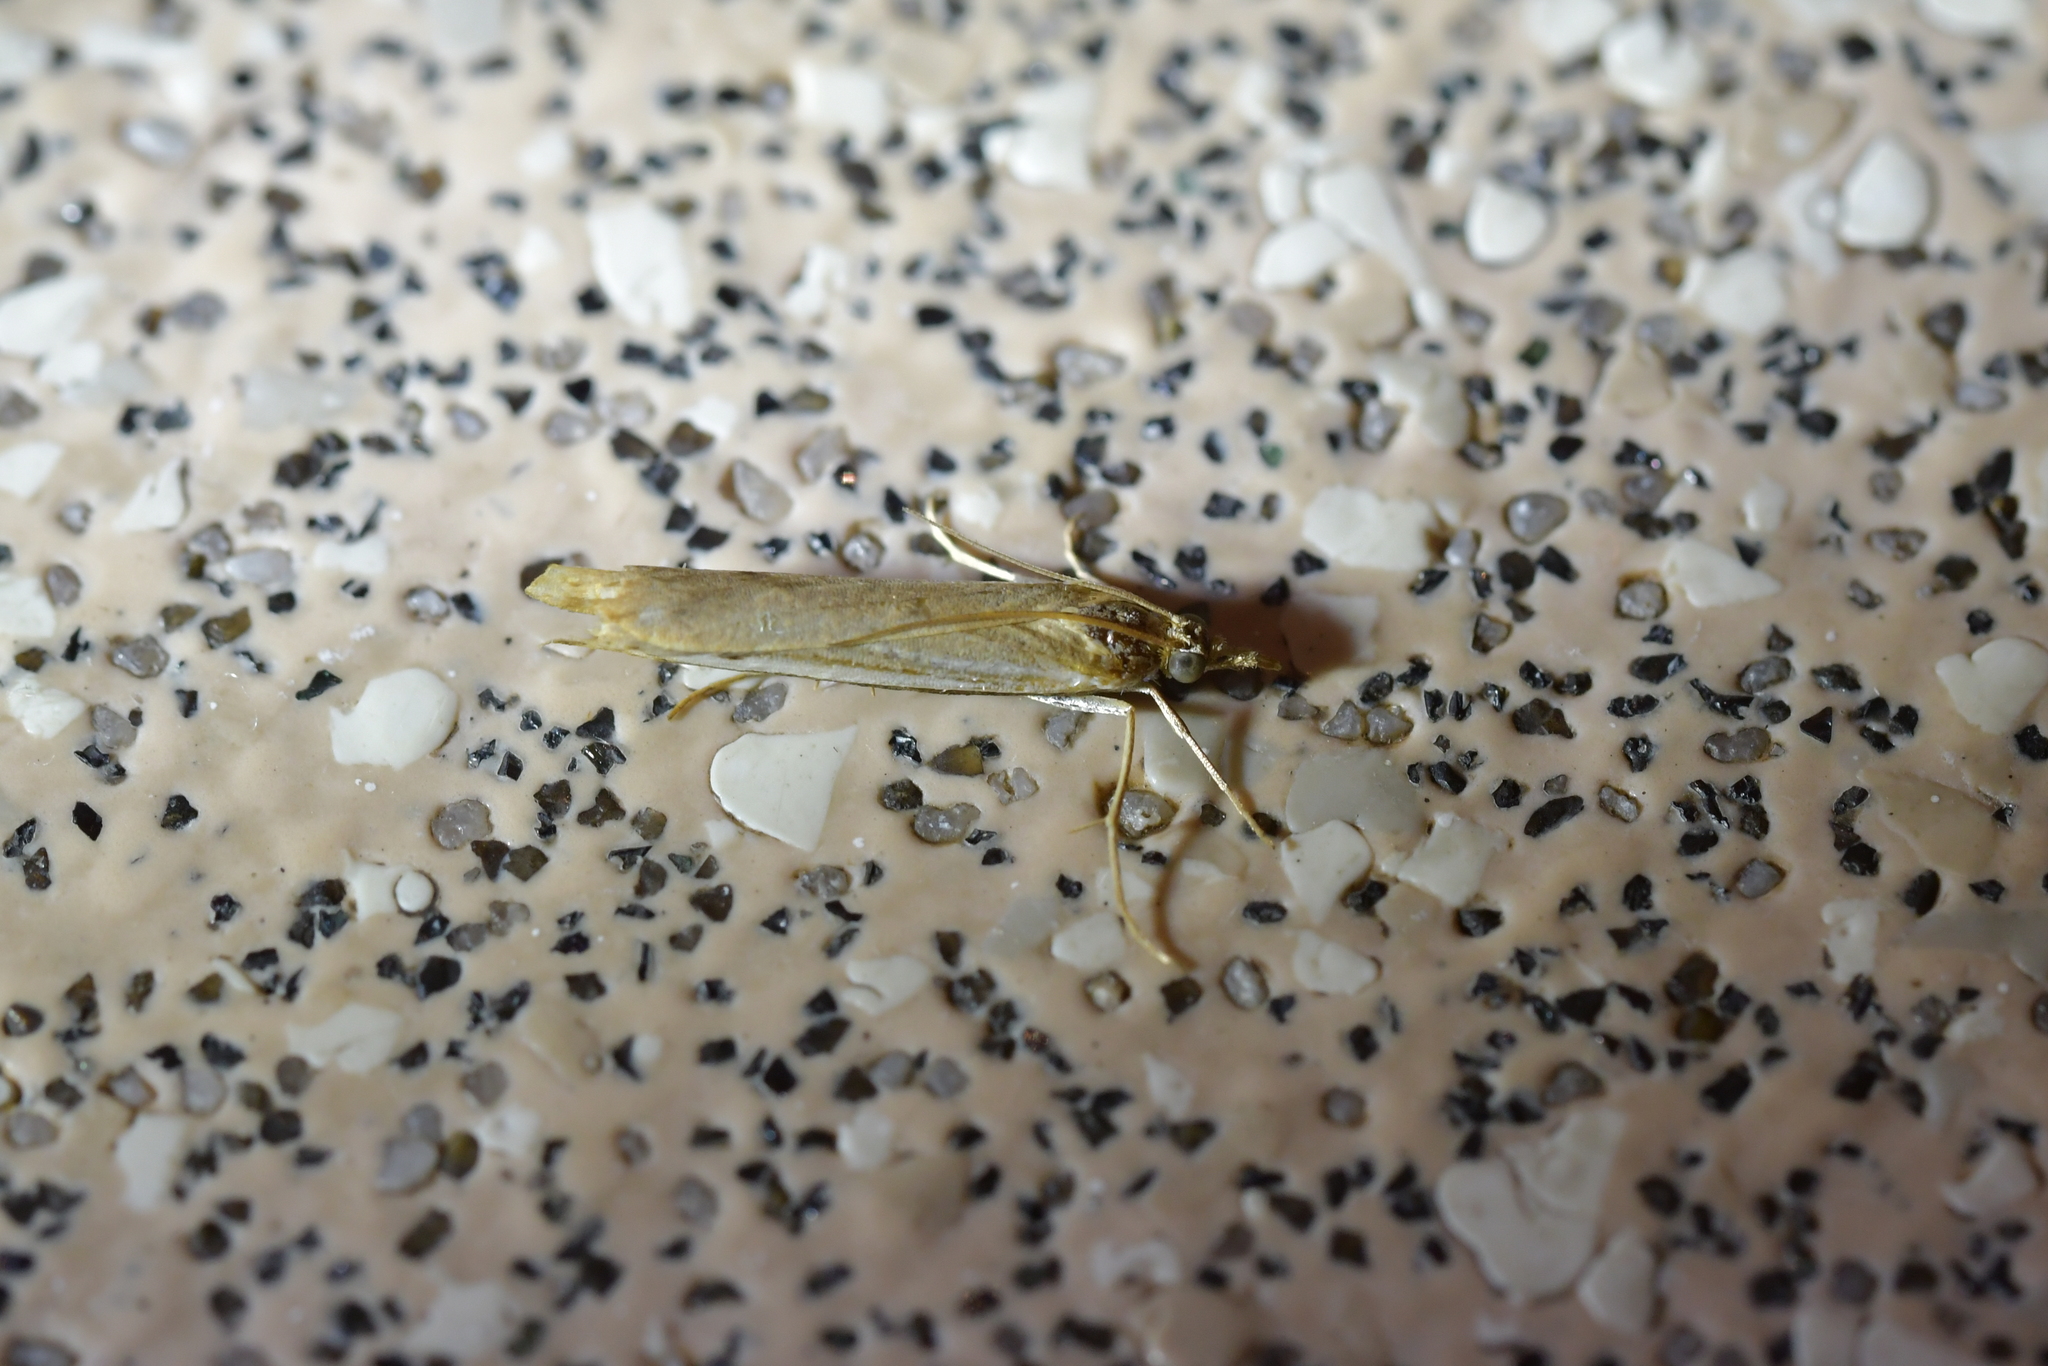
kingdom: Animalia
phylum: Arthropoda
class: Insecta
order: Lepidoptera
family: Crambidae
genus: Orocrambus
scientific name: Orocrambus flexuosellus
